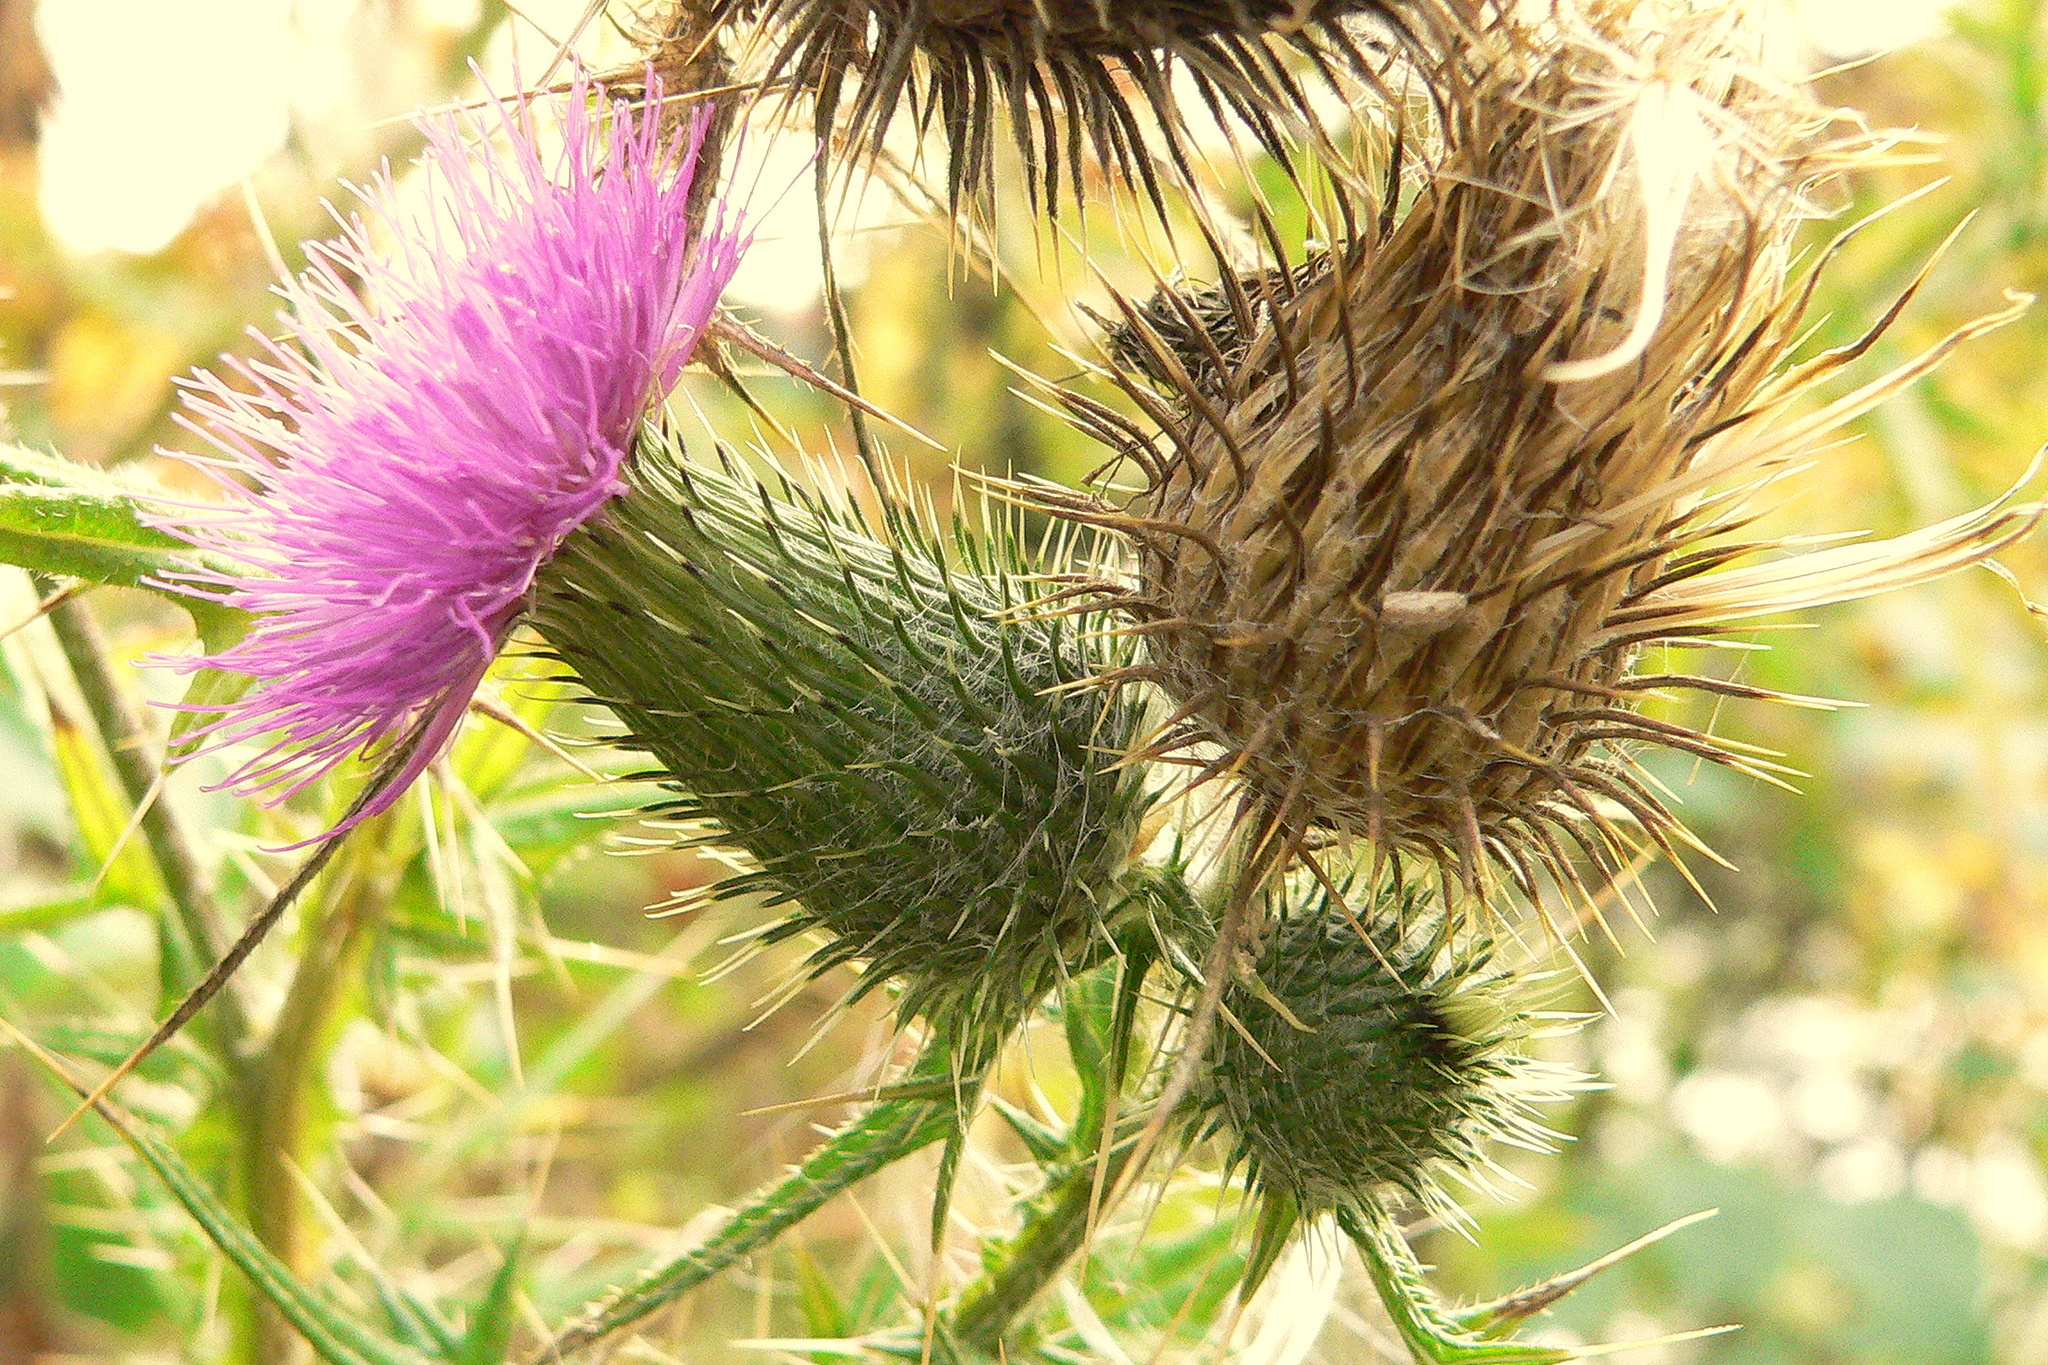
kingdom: Plantae
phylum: Tracheophyta
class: Magnoliopsida
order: Asterales
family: Asteraceae
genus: Cirsium
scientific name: Cirsium vulgare
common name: Bull thistle
